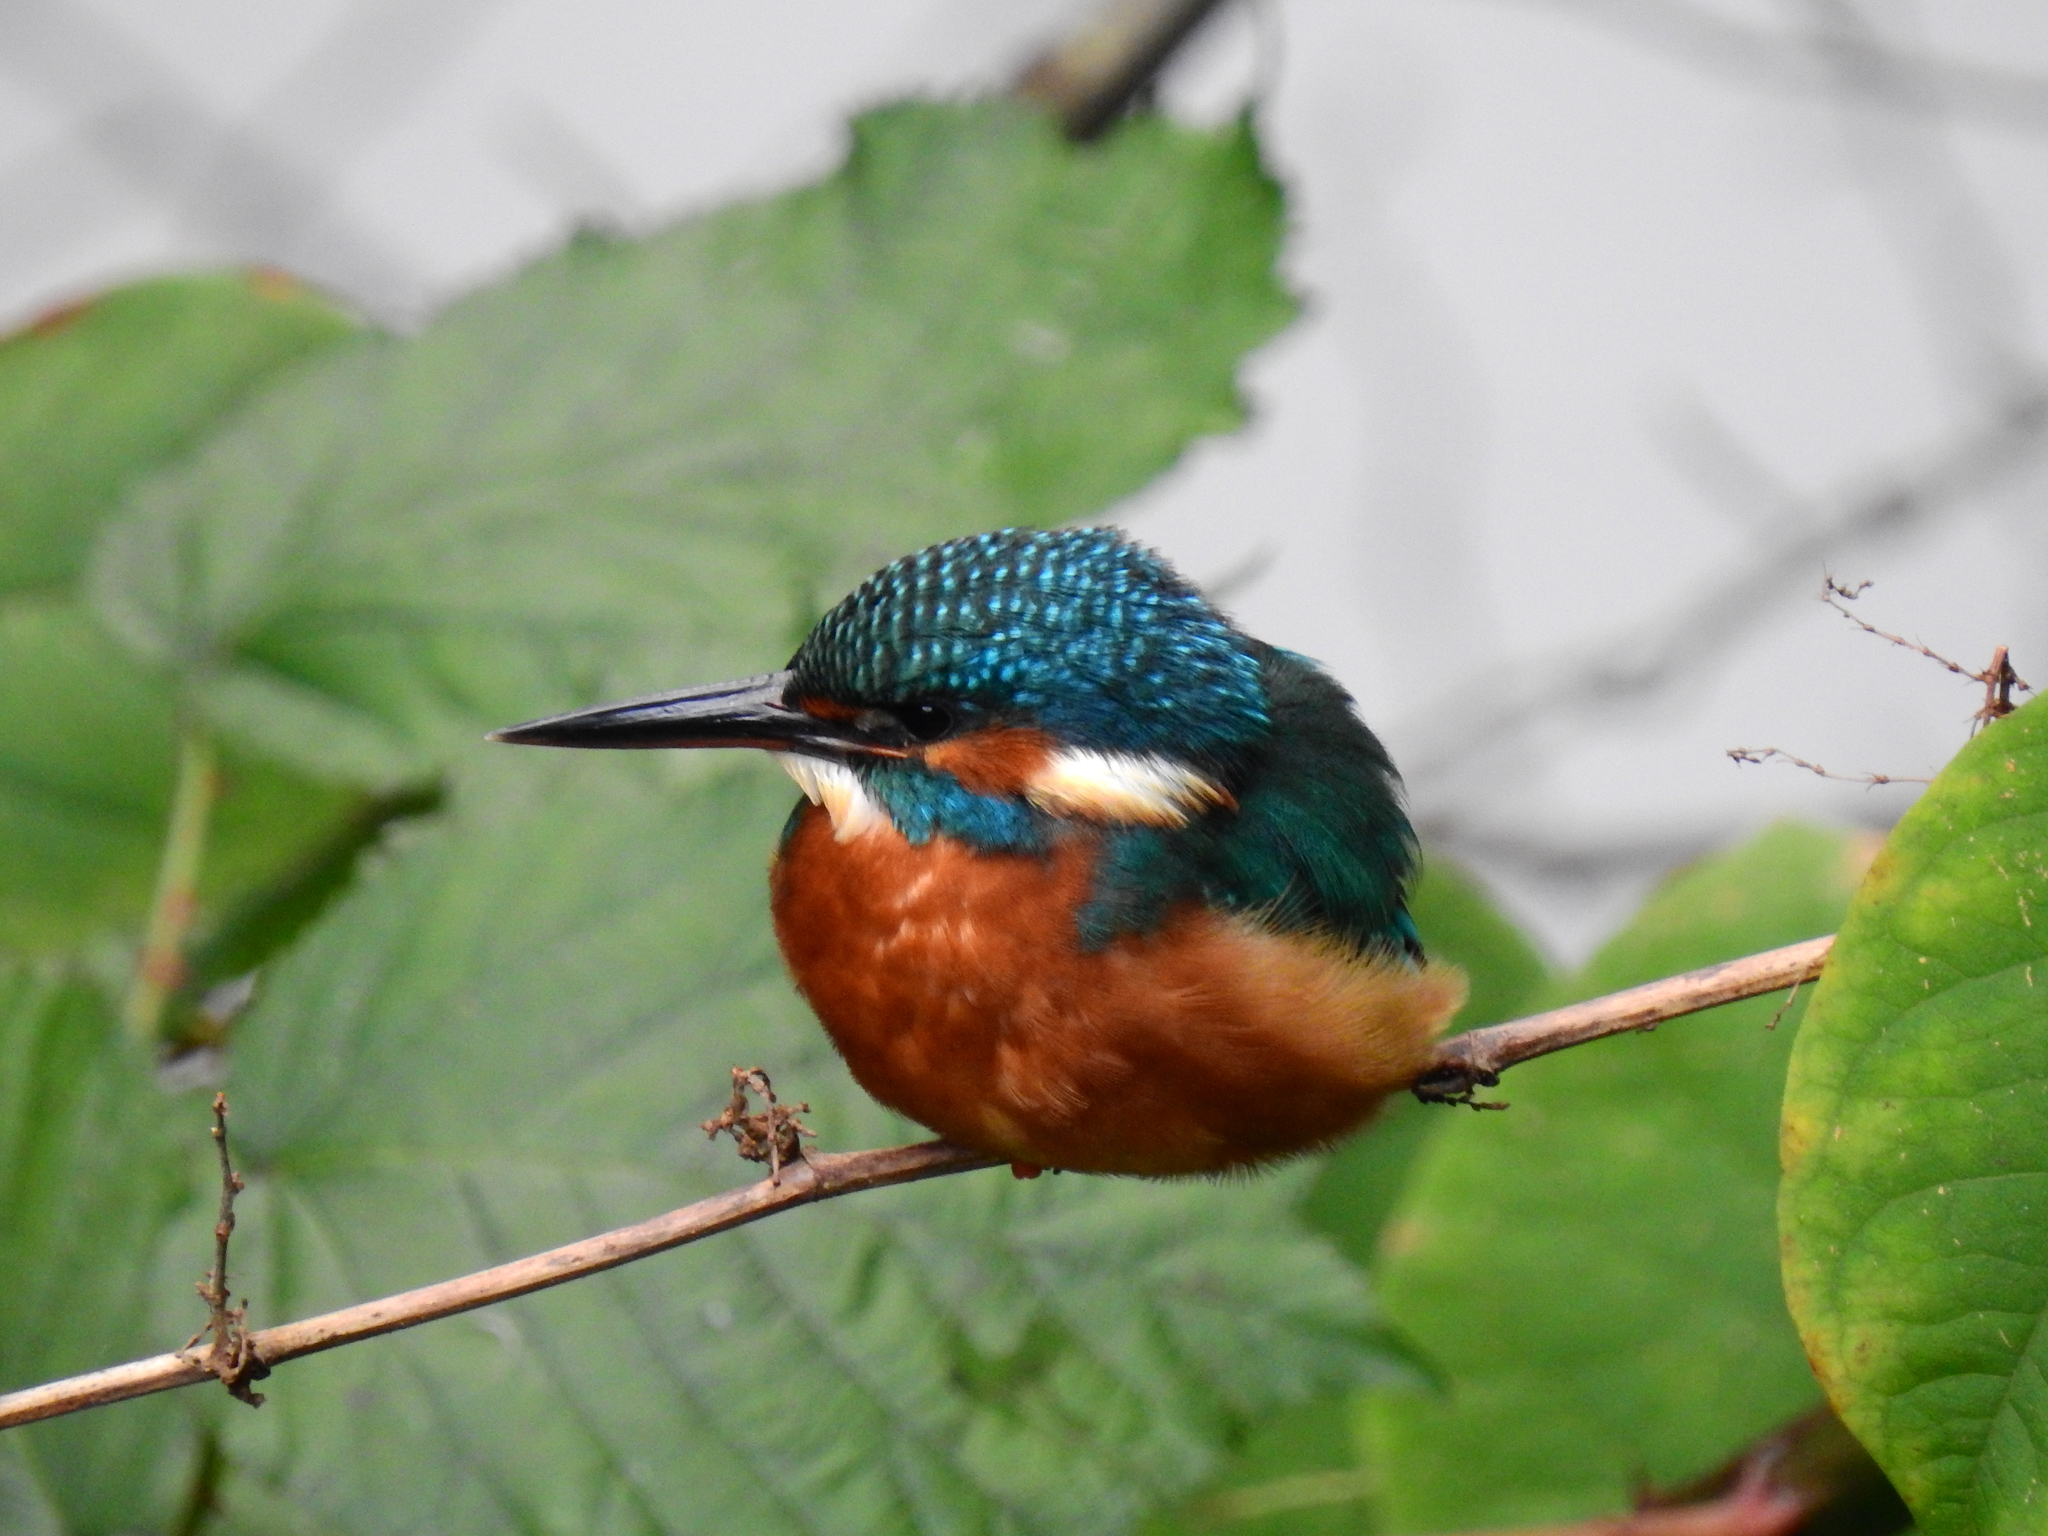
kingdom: Animalia
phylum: Chordata
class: Aves
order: Coraciiformes
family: Alcedinidae
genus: Alcedo
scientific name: Alcedo atthis
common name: Common kingfisher
